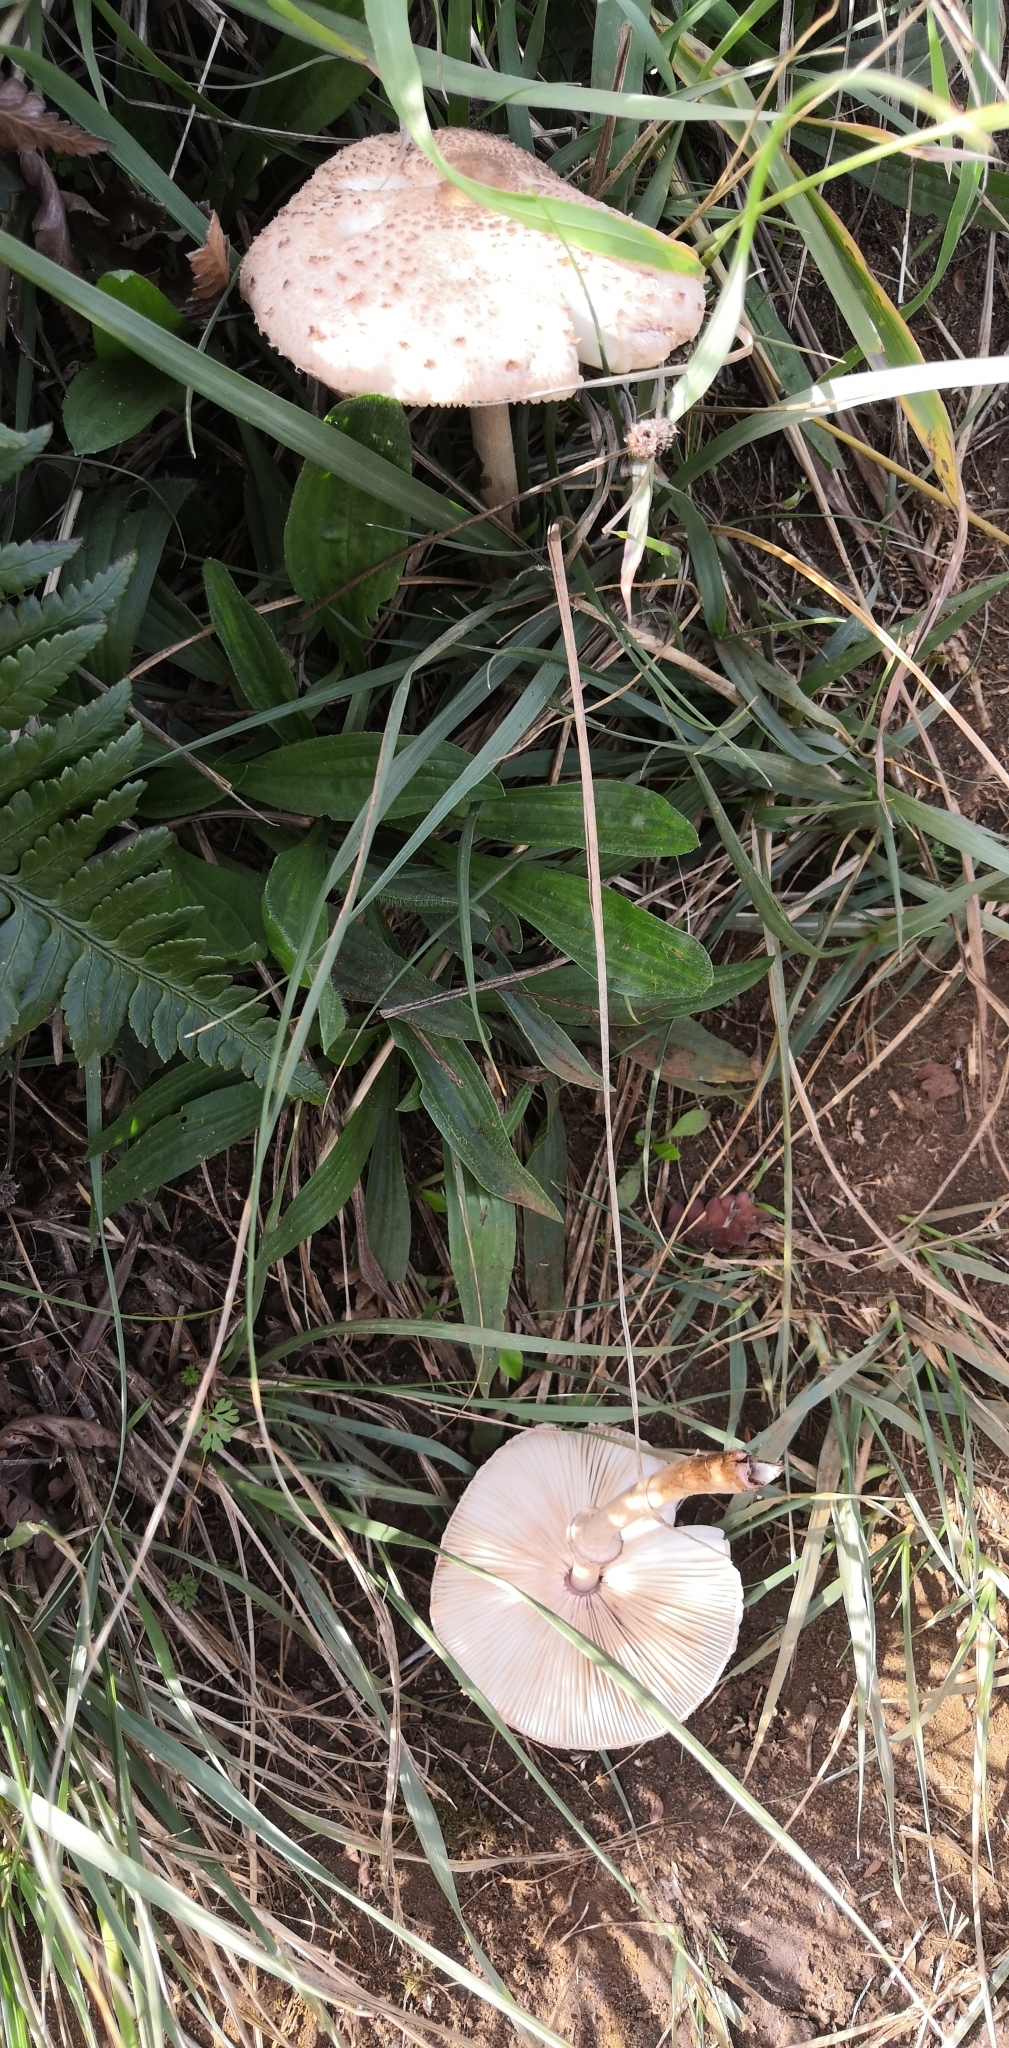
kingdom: Fungi
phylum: Basidiomycota
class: Agaricomycetes
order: Agaricales
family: Agaricaceae
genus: Macrolepiota
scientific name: Macrolepiota clelandii
